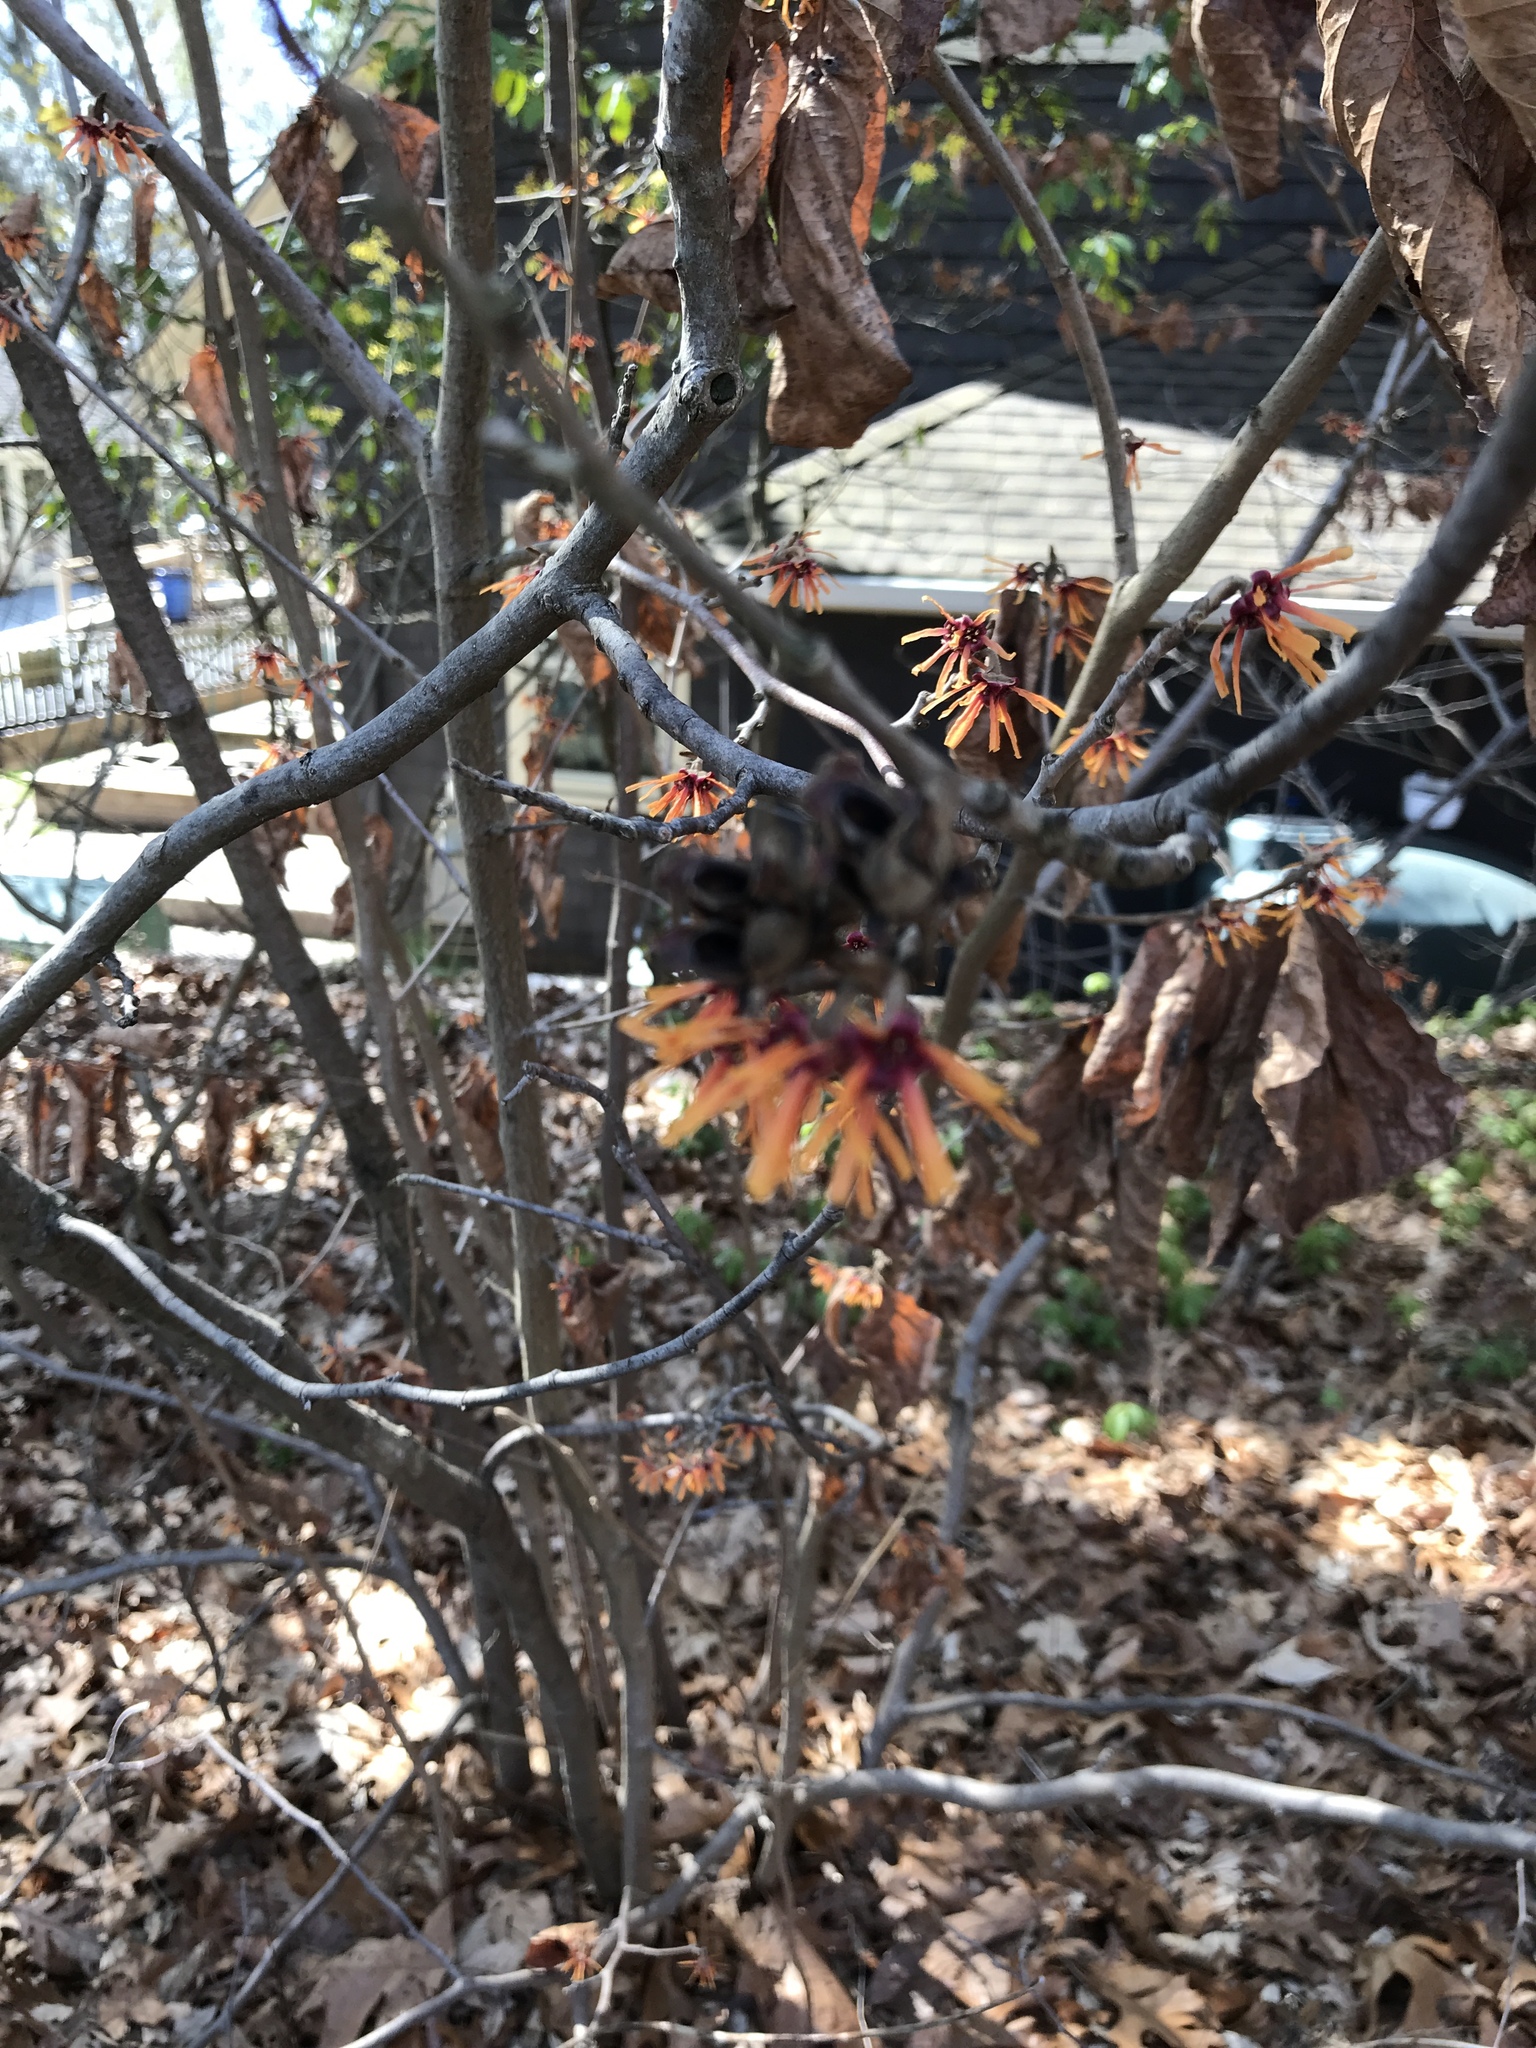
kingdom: Plantae
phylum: Tracheophyta
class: Magnoliopsida
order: Saxifragales
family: Hamamelidaceae
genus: Hamamelis
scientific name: Hamamelis
